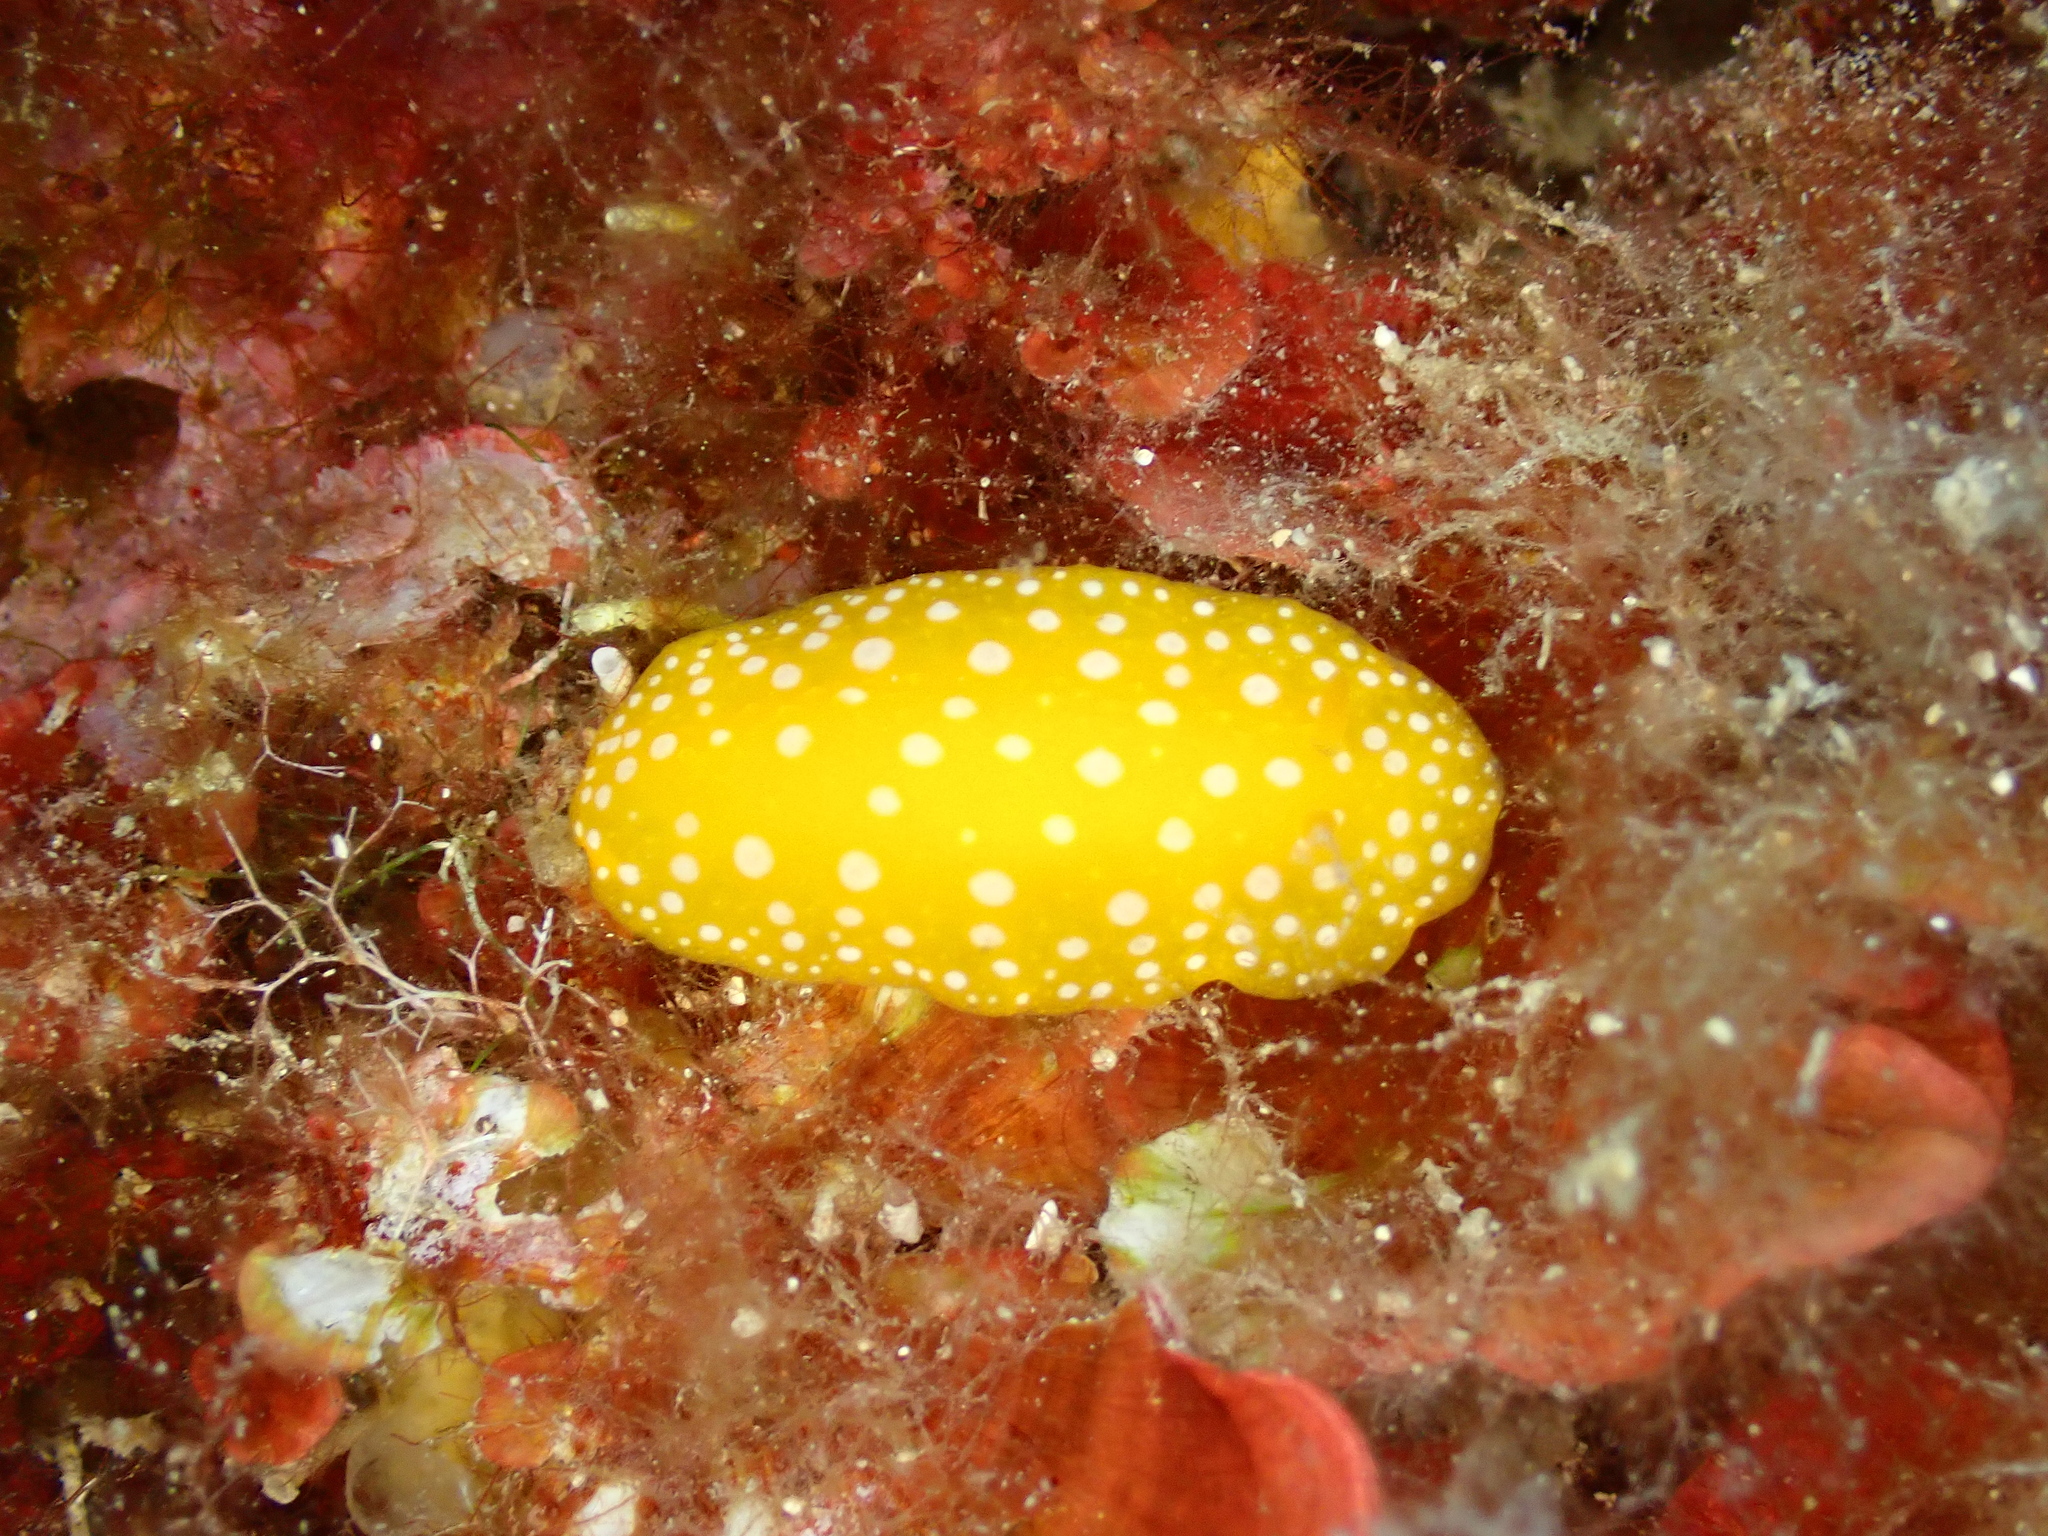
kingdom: Animalia
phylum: Mollusca
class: Gastropoda
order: Nudibranchia
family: Phyllidiidae
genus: Phyllidia
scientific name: Phyllidia flava
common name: White-spotted yellow nudibranch
